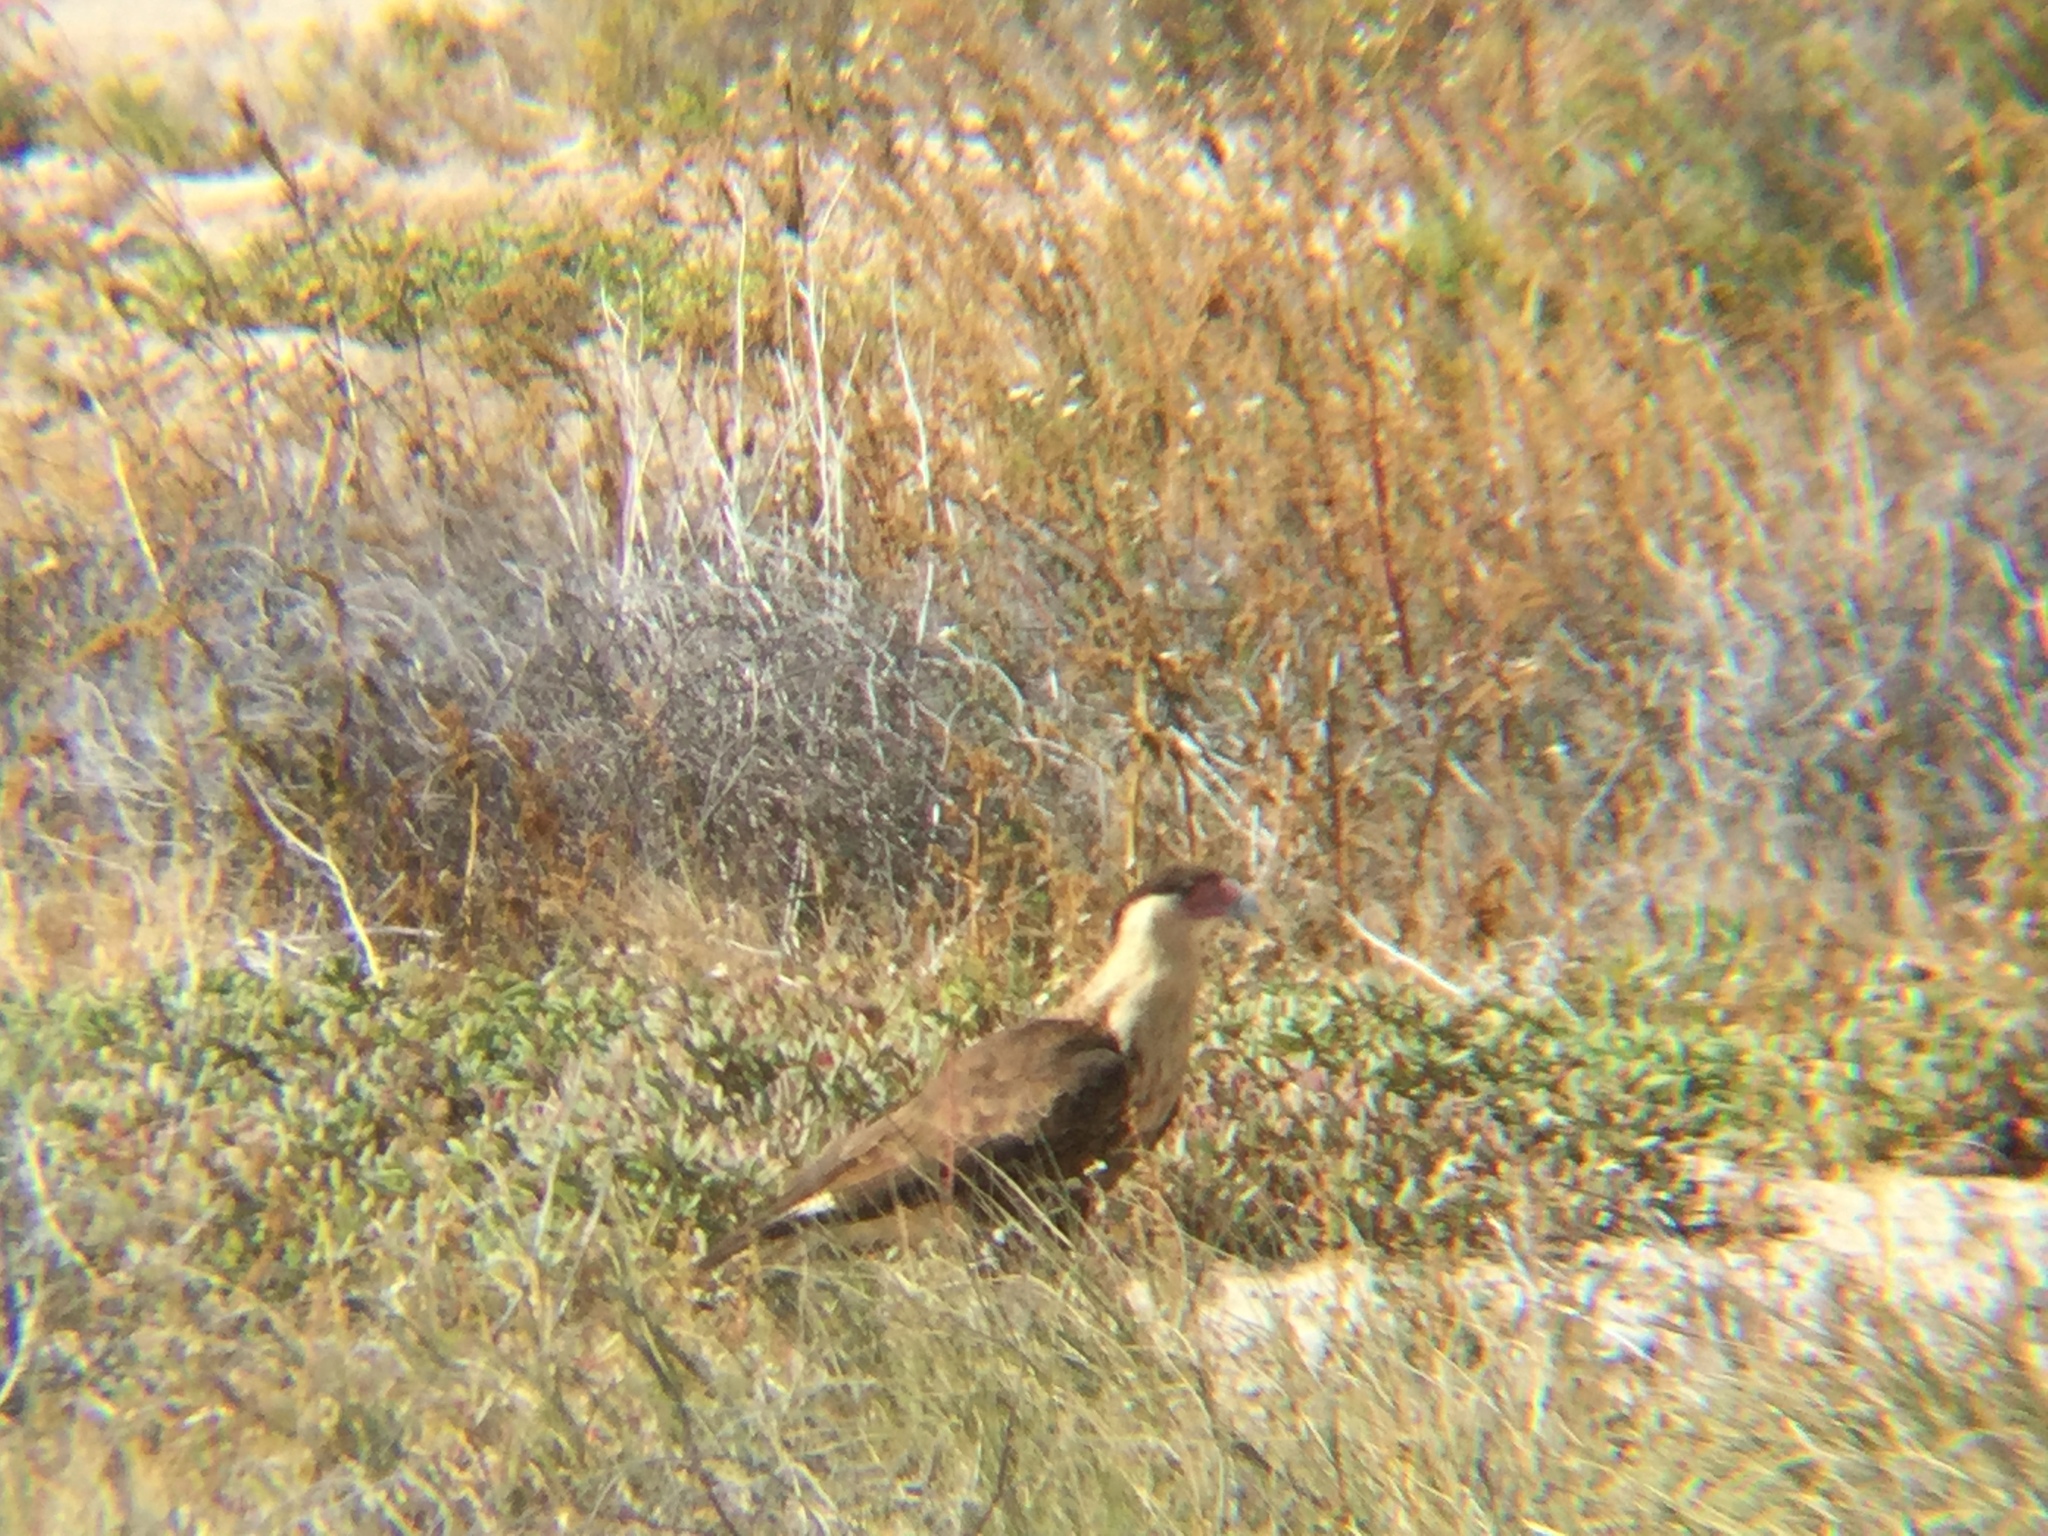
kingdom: Animalia
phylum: Chordata
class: Aves
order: Falconiformes
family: Falconidae
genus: Caracara
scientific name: Caracara plancus
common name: Southern caracara
